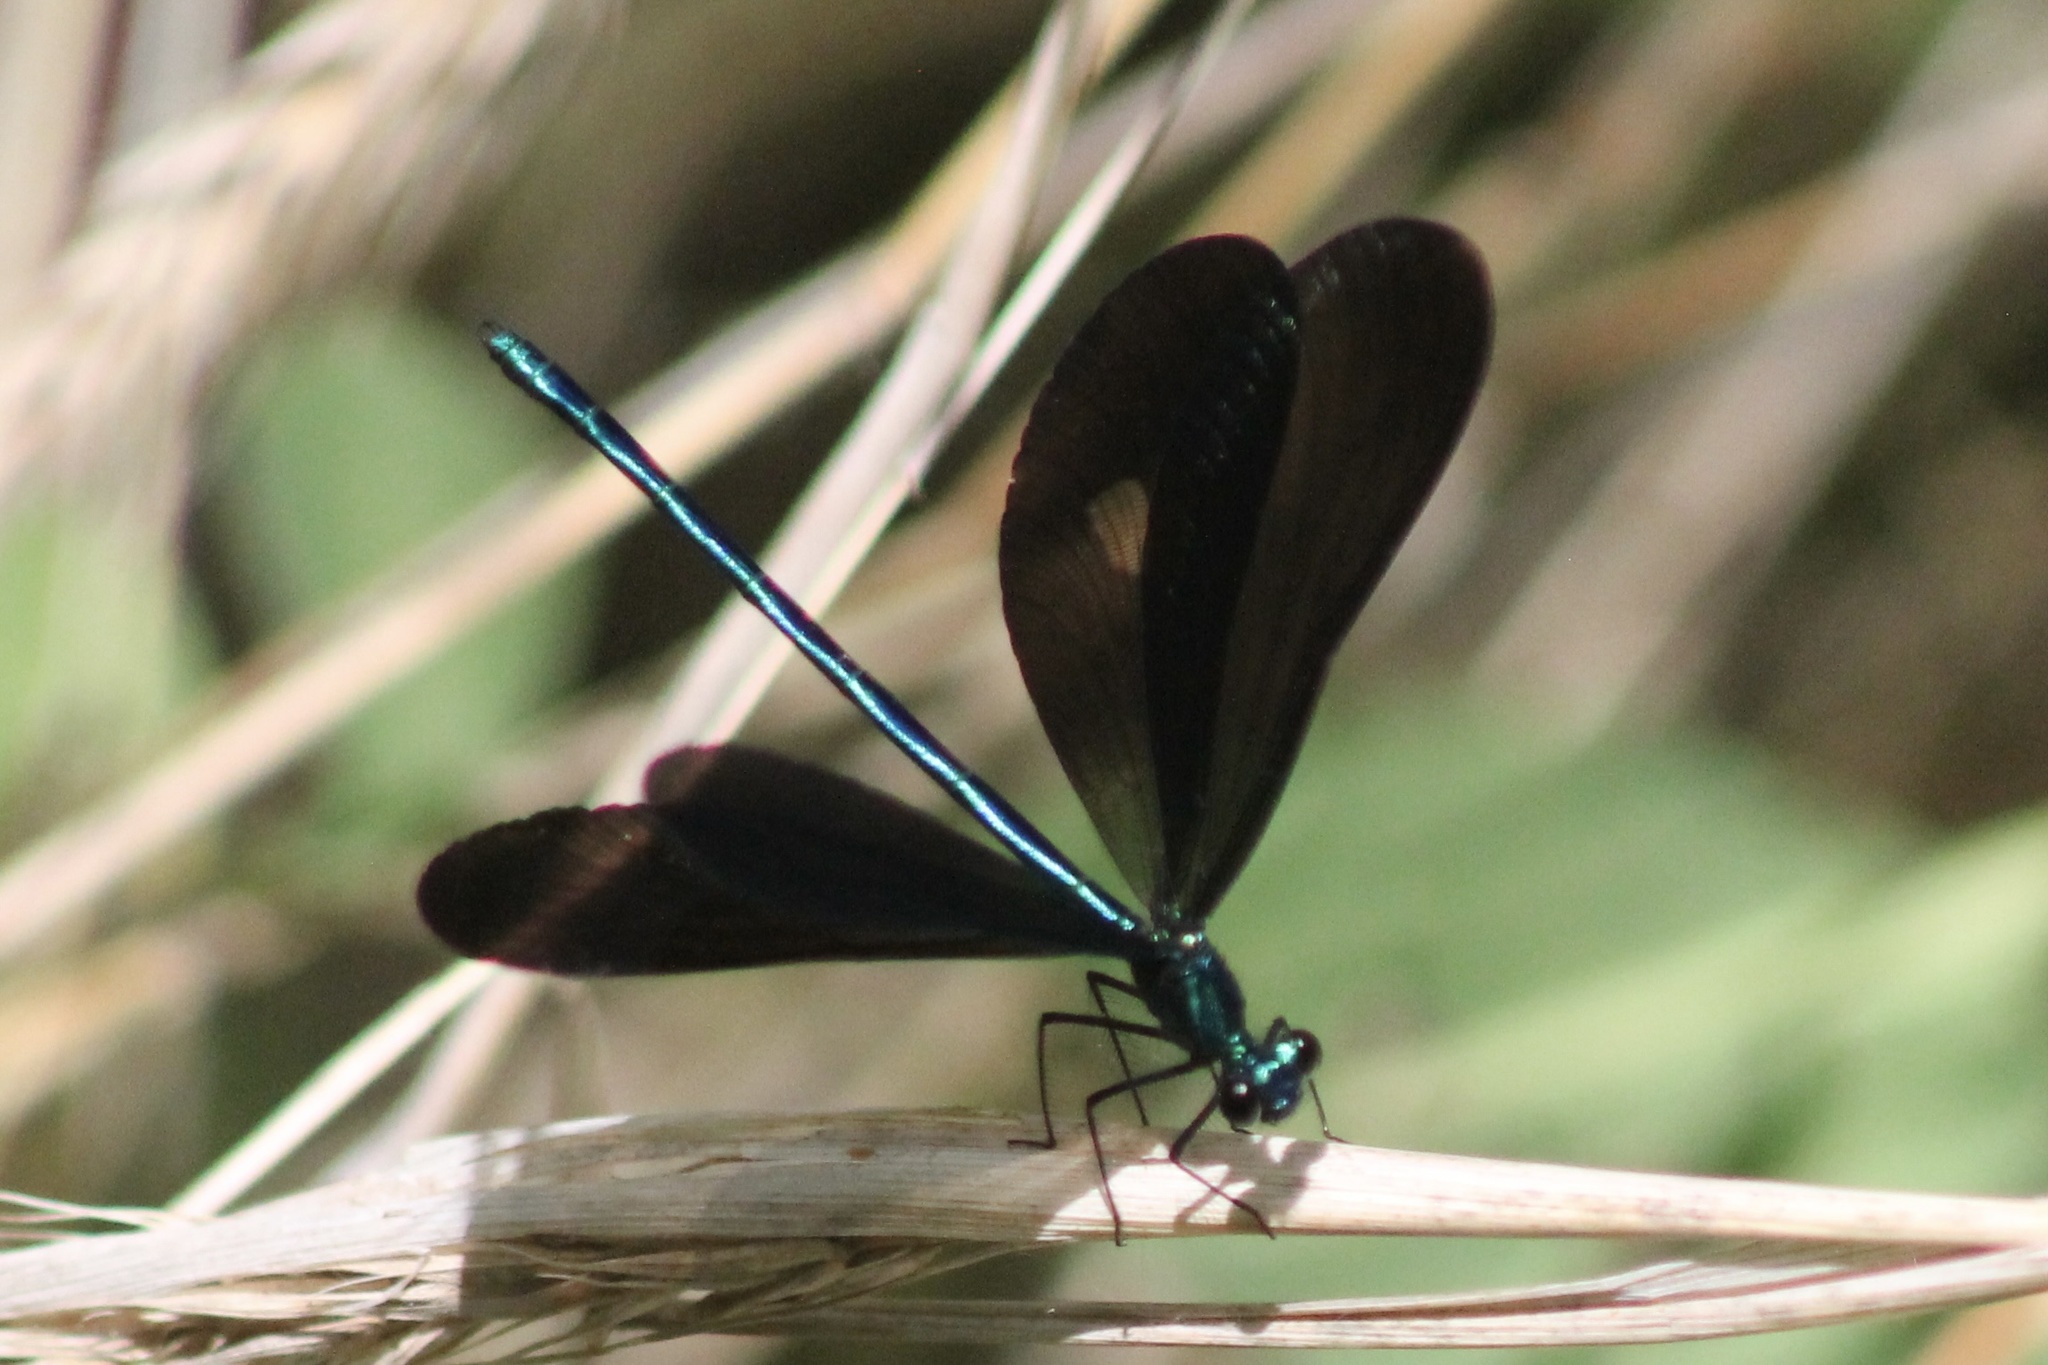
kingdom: Animalia
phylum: Arthropoda
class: Insecta
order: Odonata
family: Calopterygidae
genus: Calopteryx
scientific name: Calopteryx maculata
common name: Ebony jewelwing
